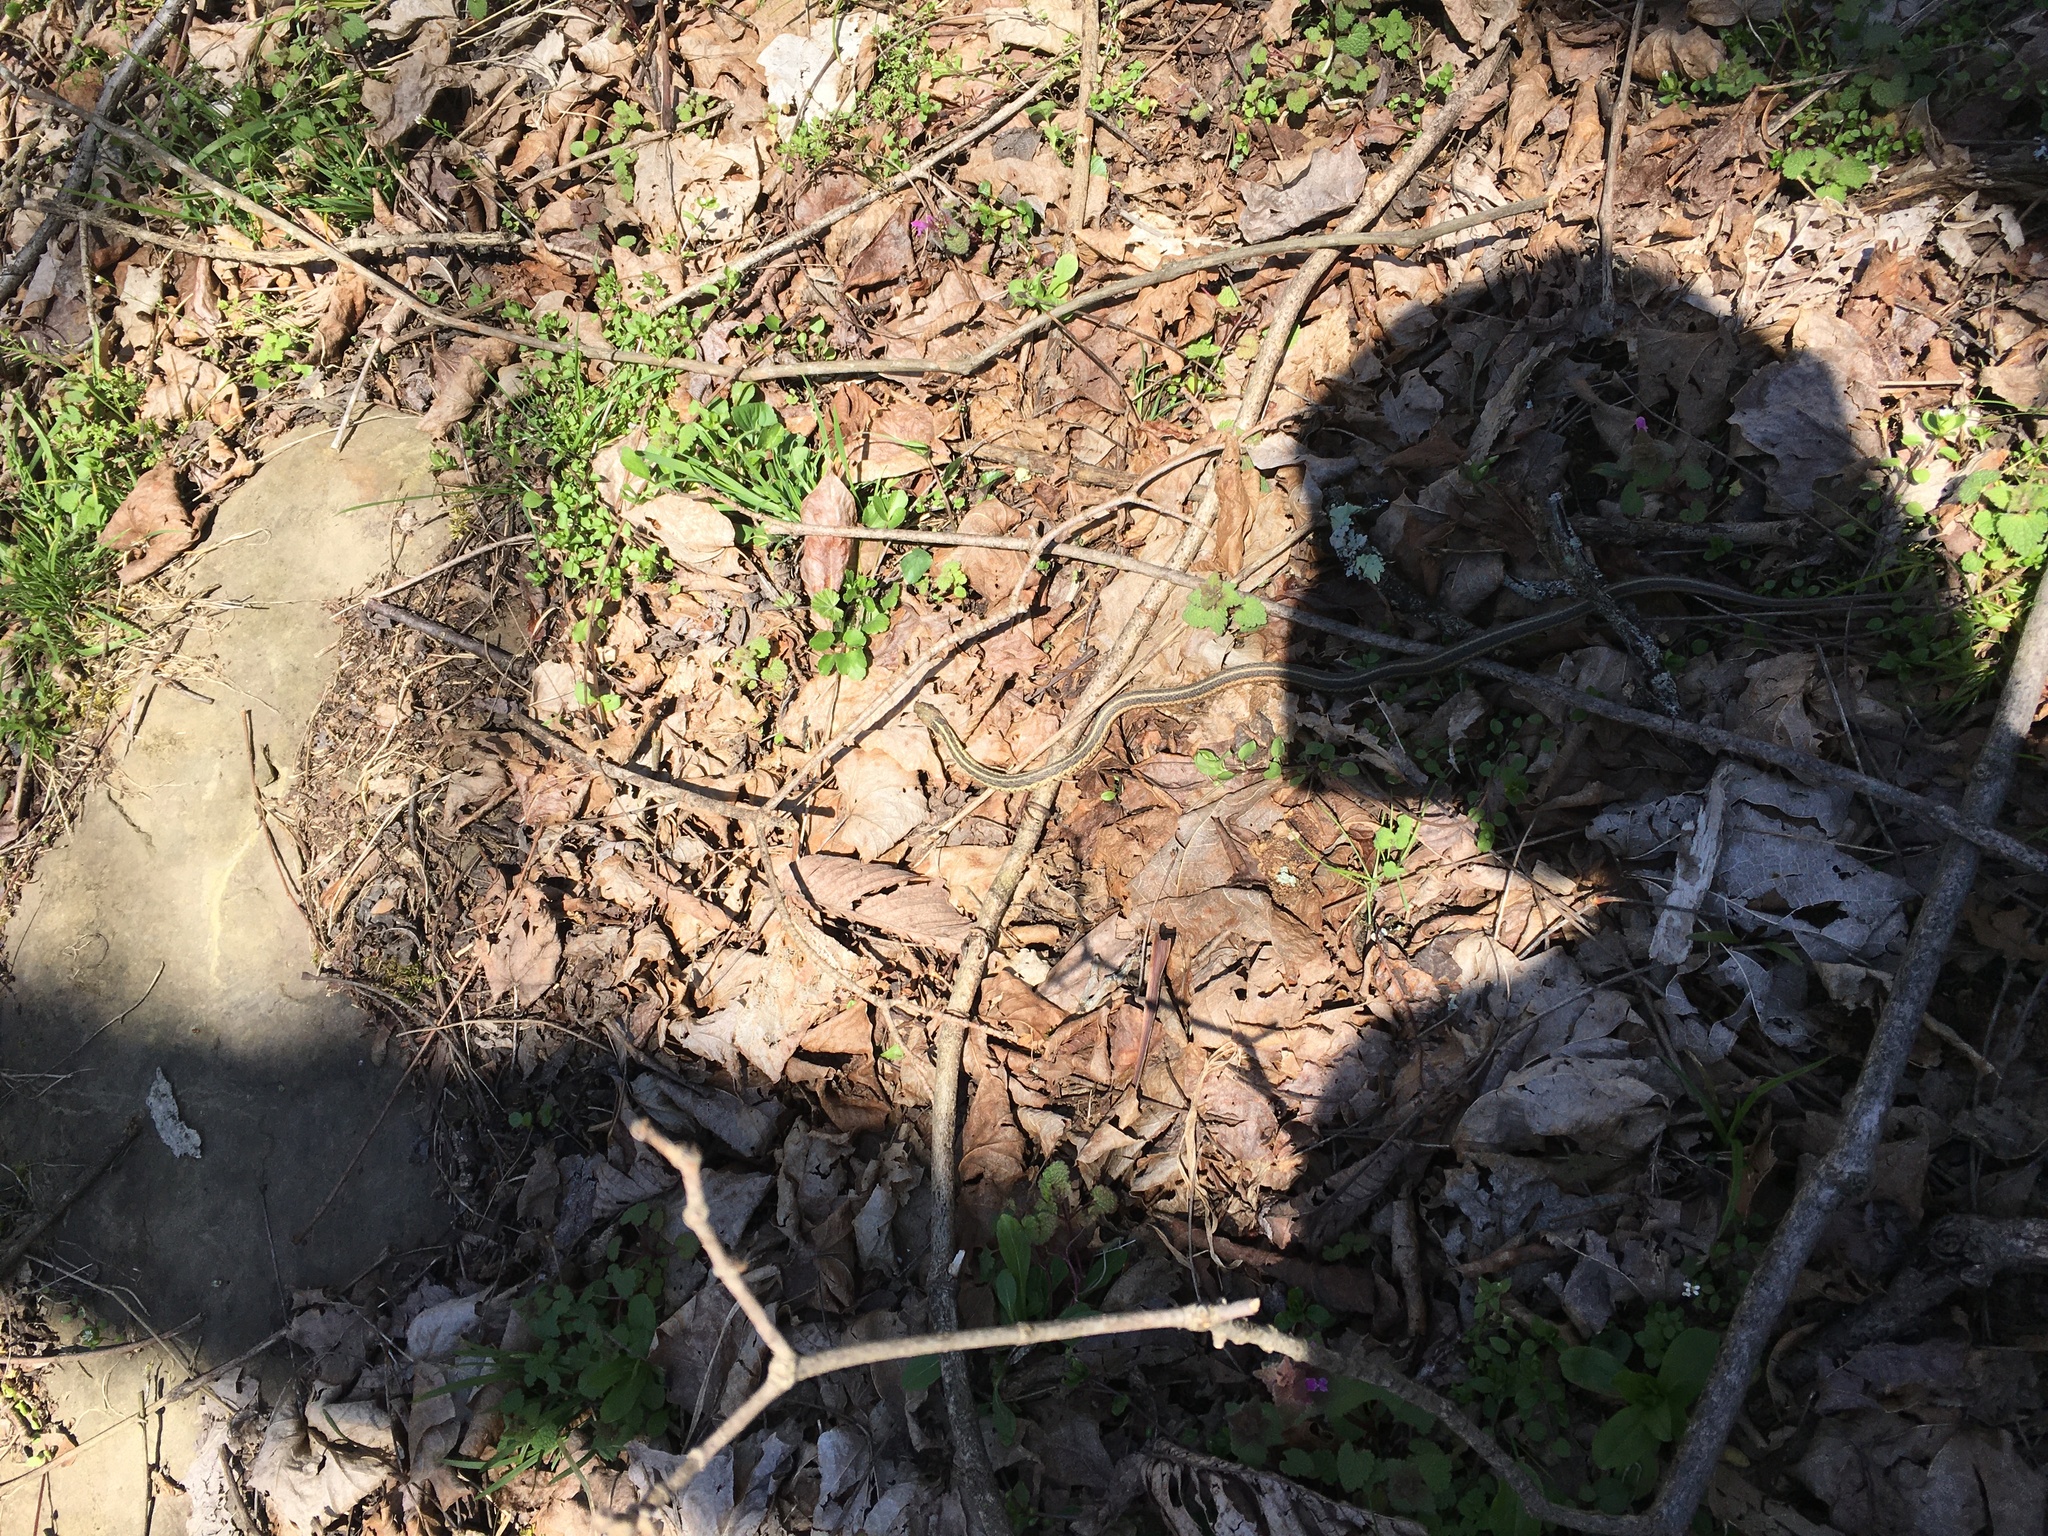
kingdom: Animalia
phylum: Chordata
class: Squamata
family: Colubridae
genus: Thamnophis
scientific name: Thamnophis sirtalis
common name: Common garter snake
